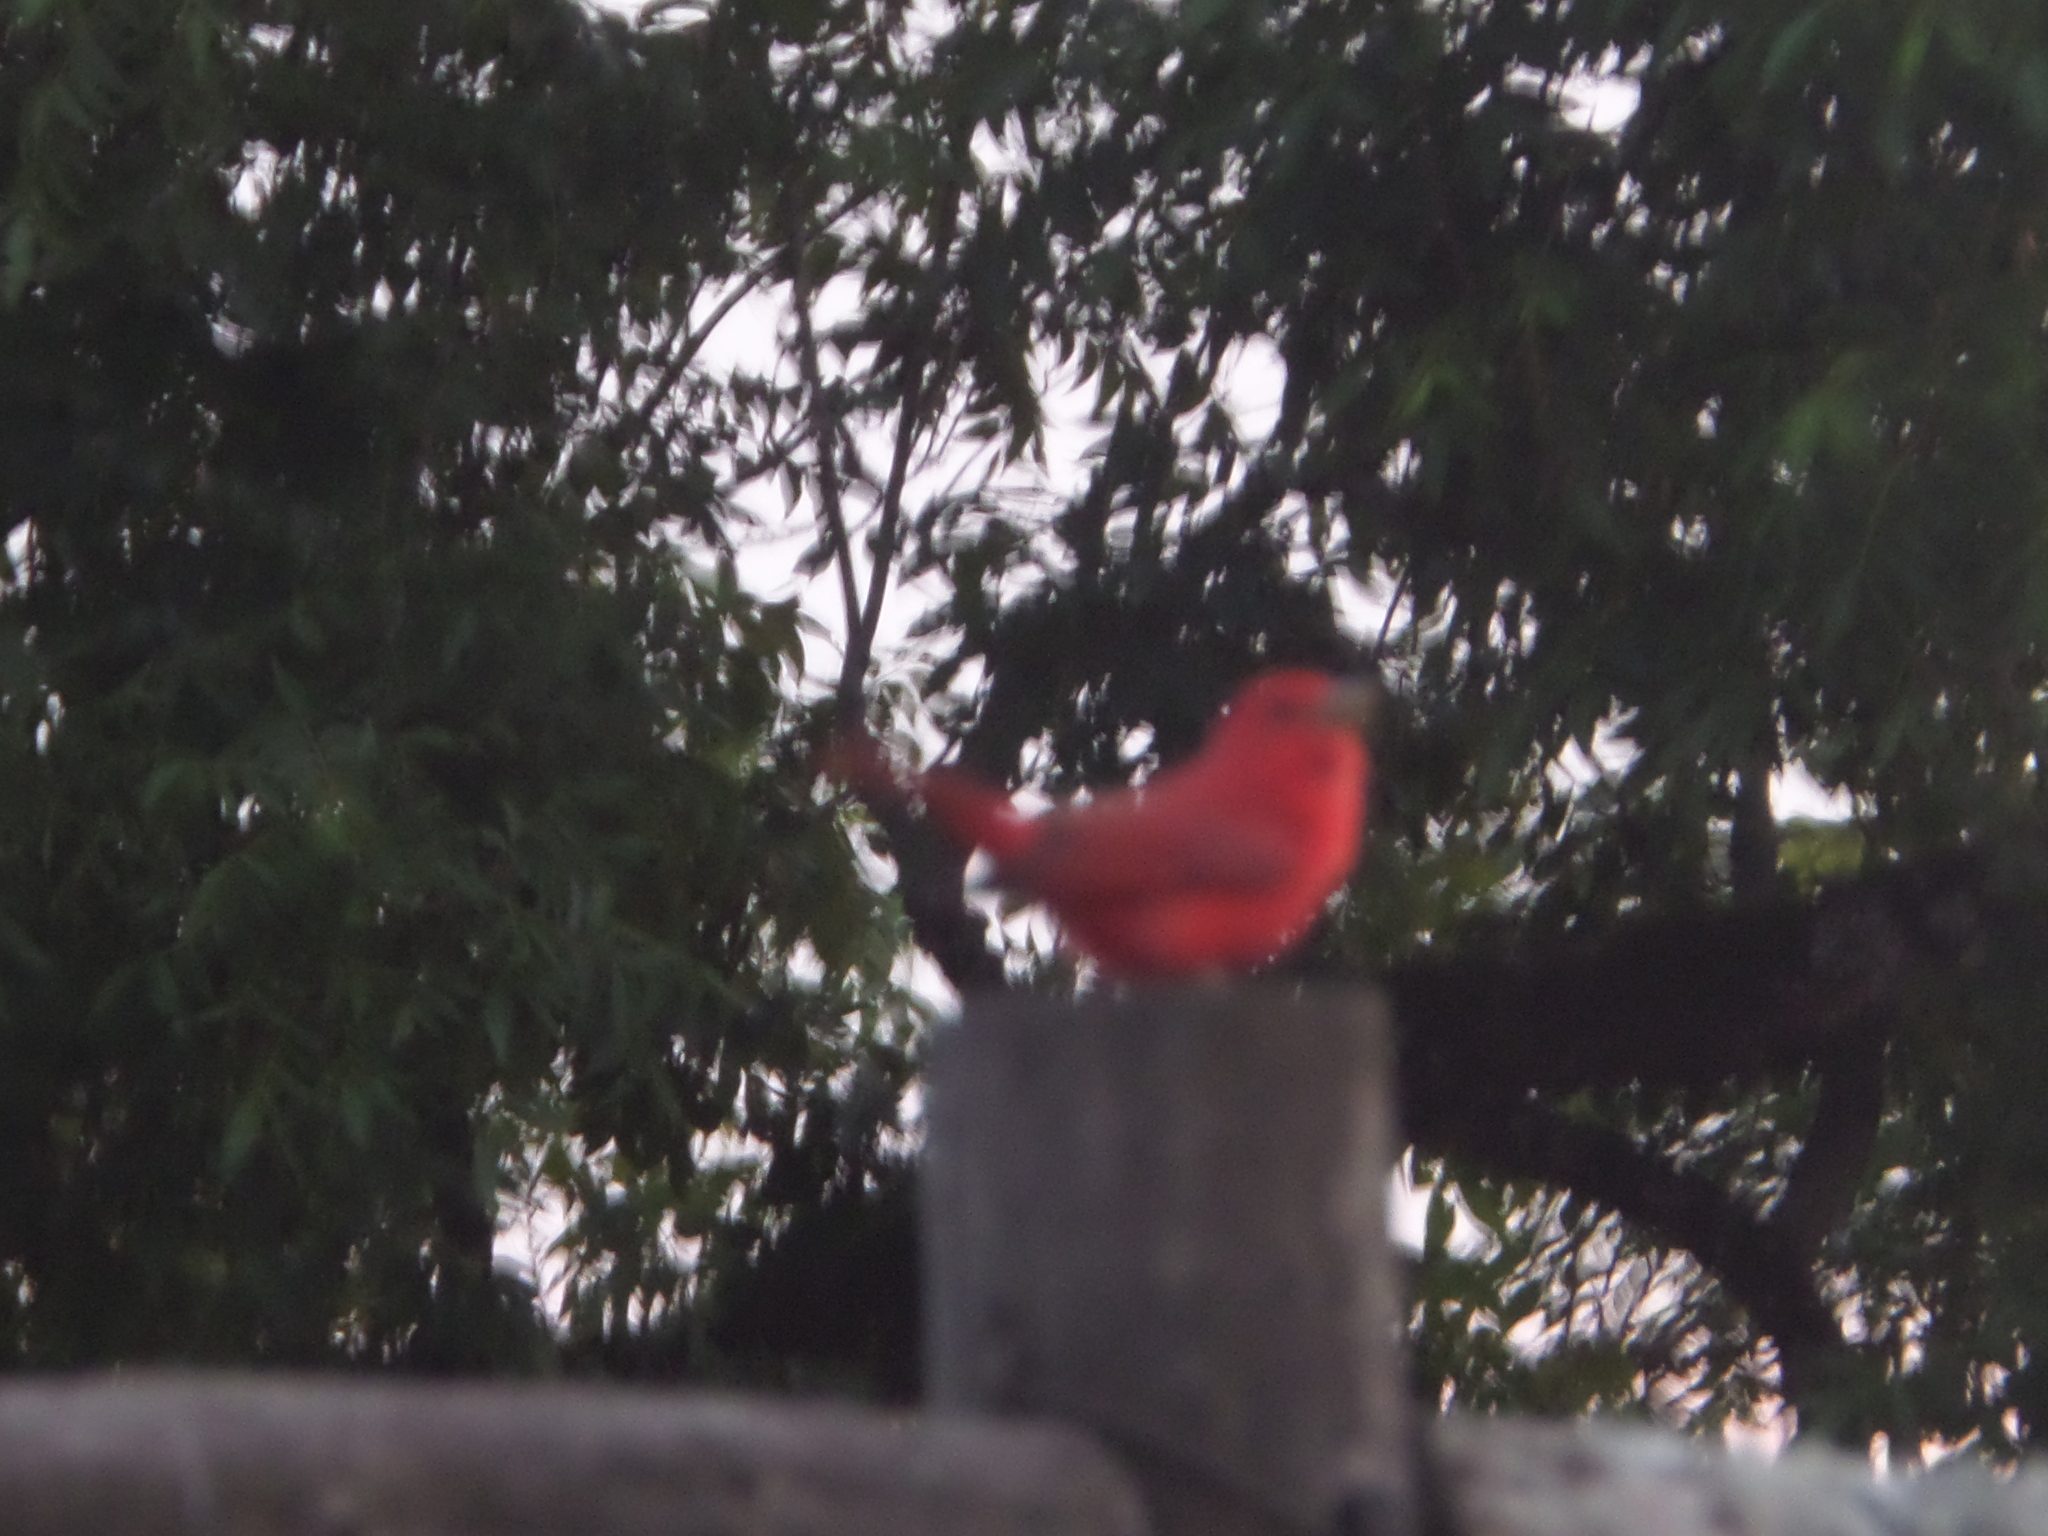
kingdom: Animalia
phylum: Chordata
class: Aves
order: Passeriformes
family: Cardinalidae
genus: Piranga
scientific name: Piranga rubra
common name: Summer tanager
